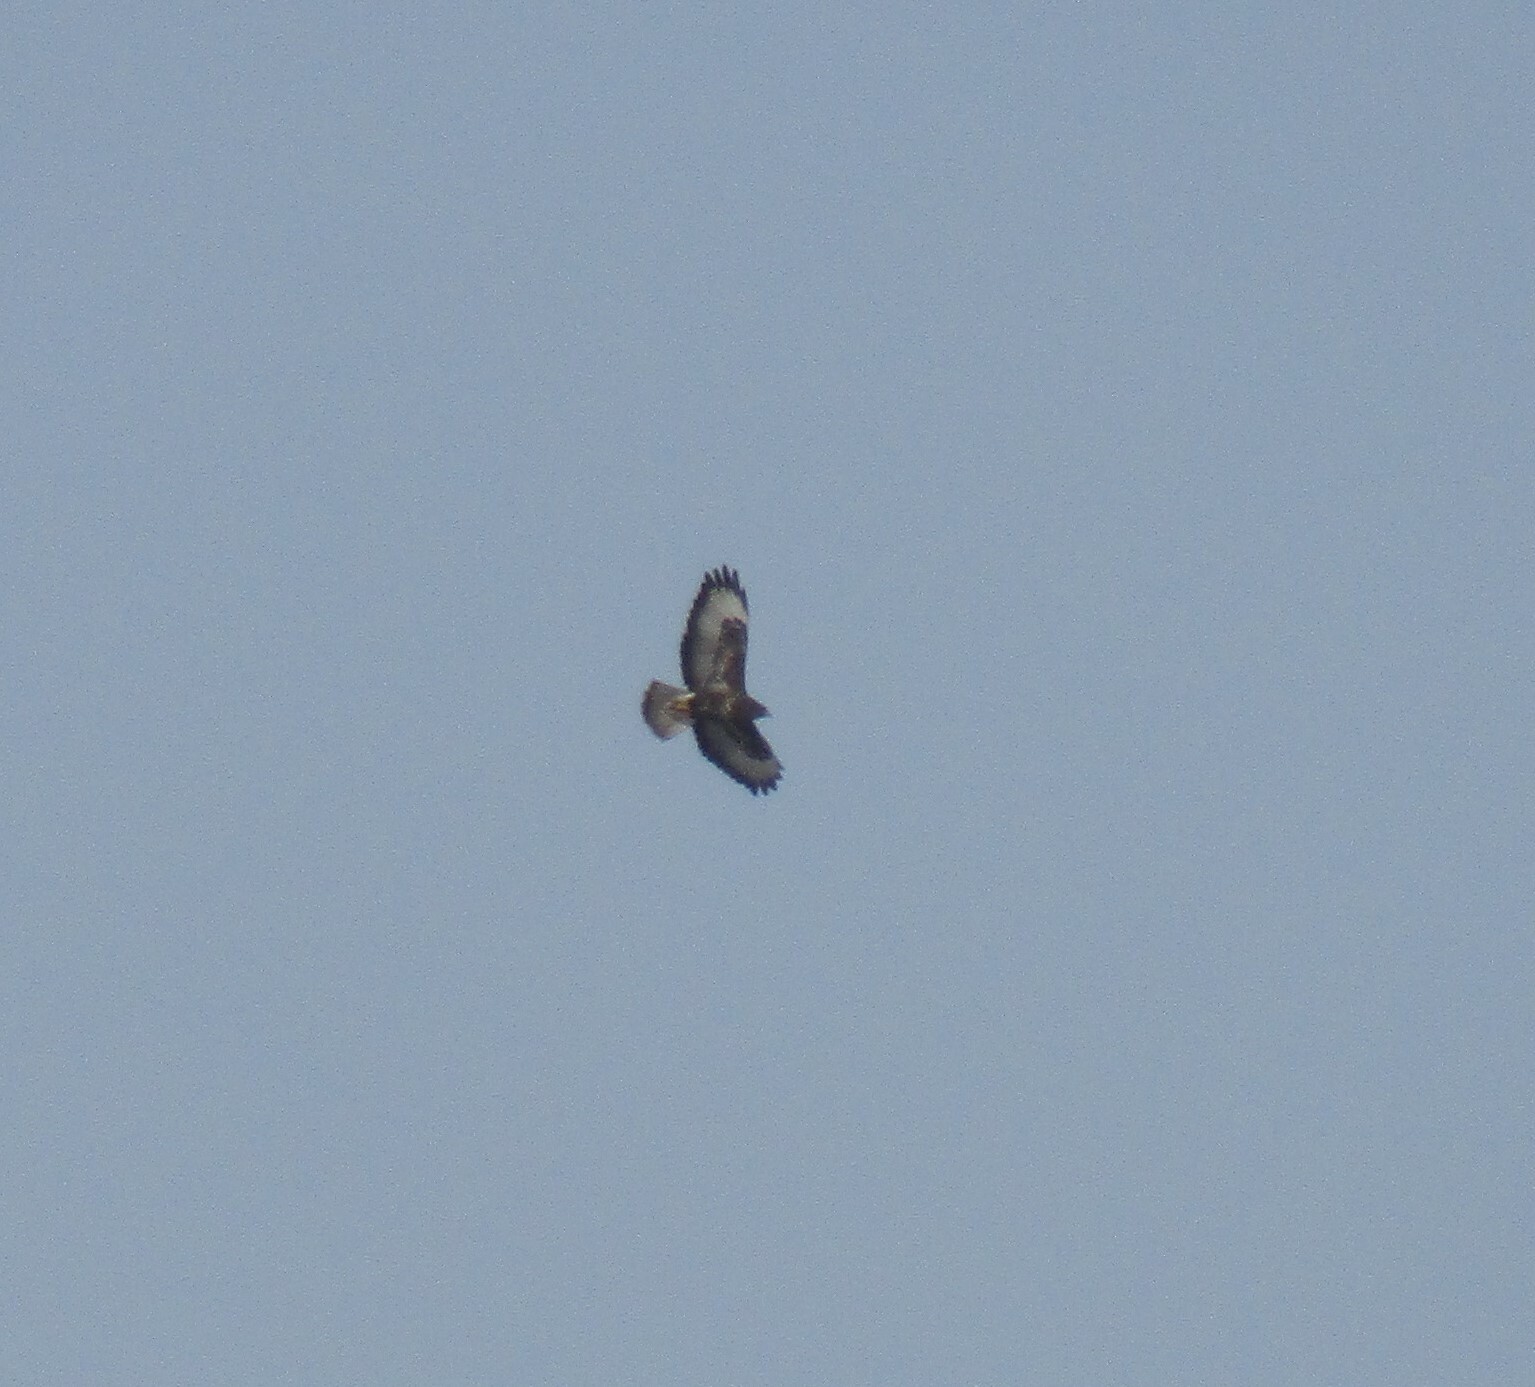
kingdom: Animalia
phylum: Chordata
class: Aves
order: Accipitriformes
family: Accipitridae
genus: Buteo
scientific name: Buteo buteo
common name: Common buzzard
